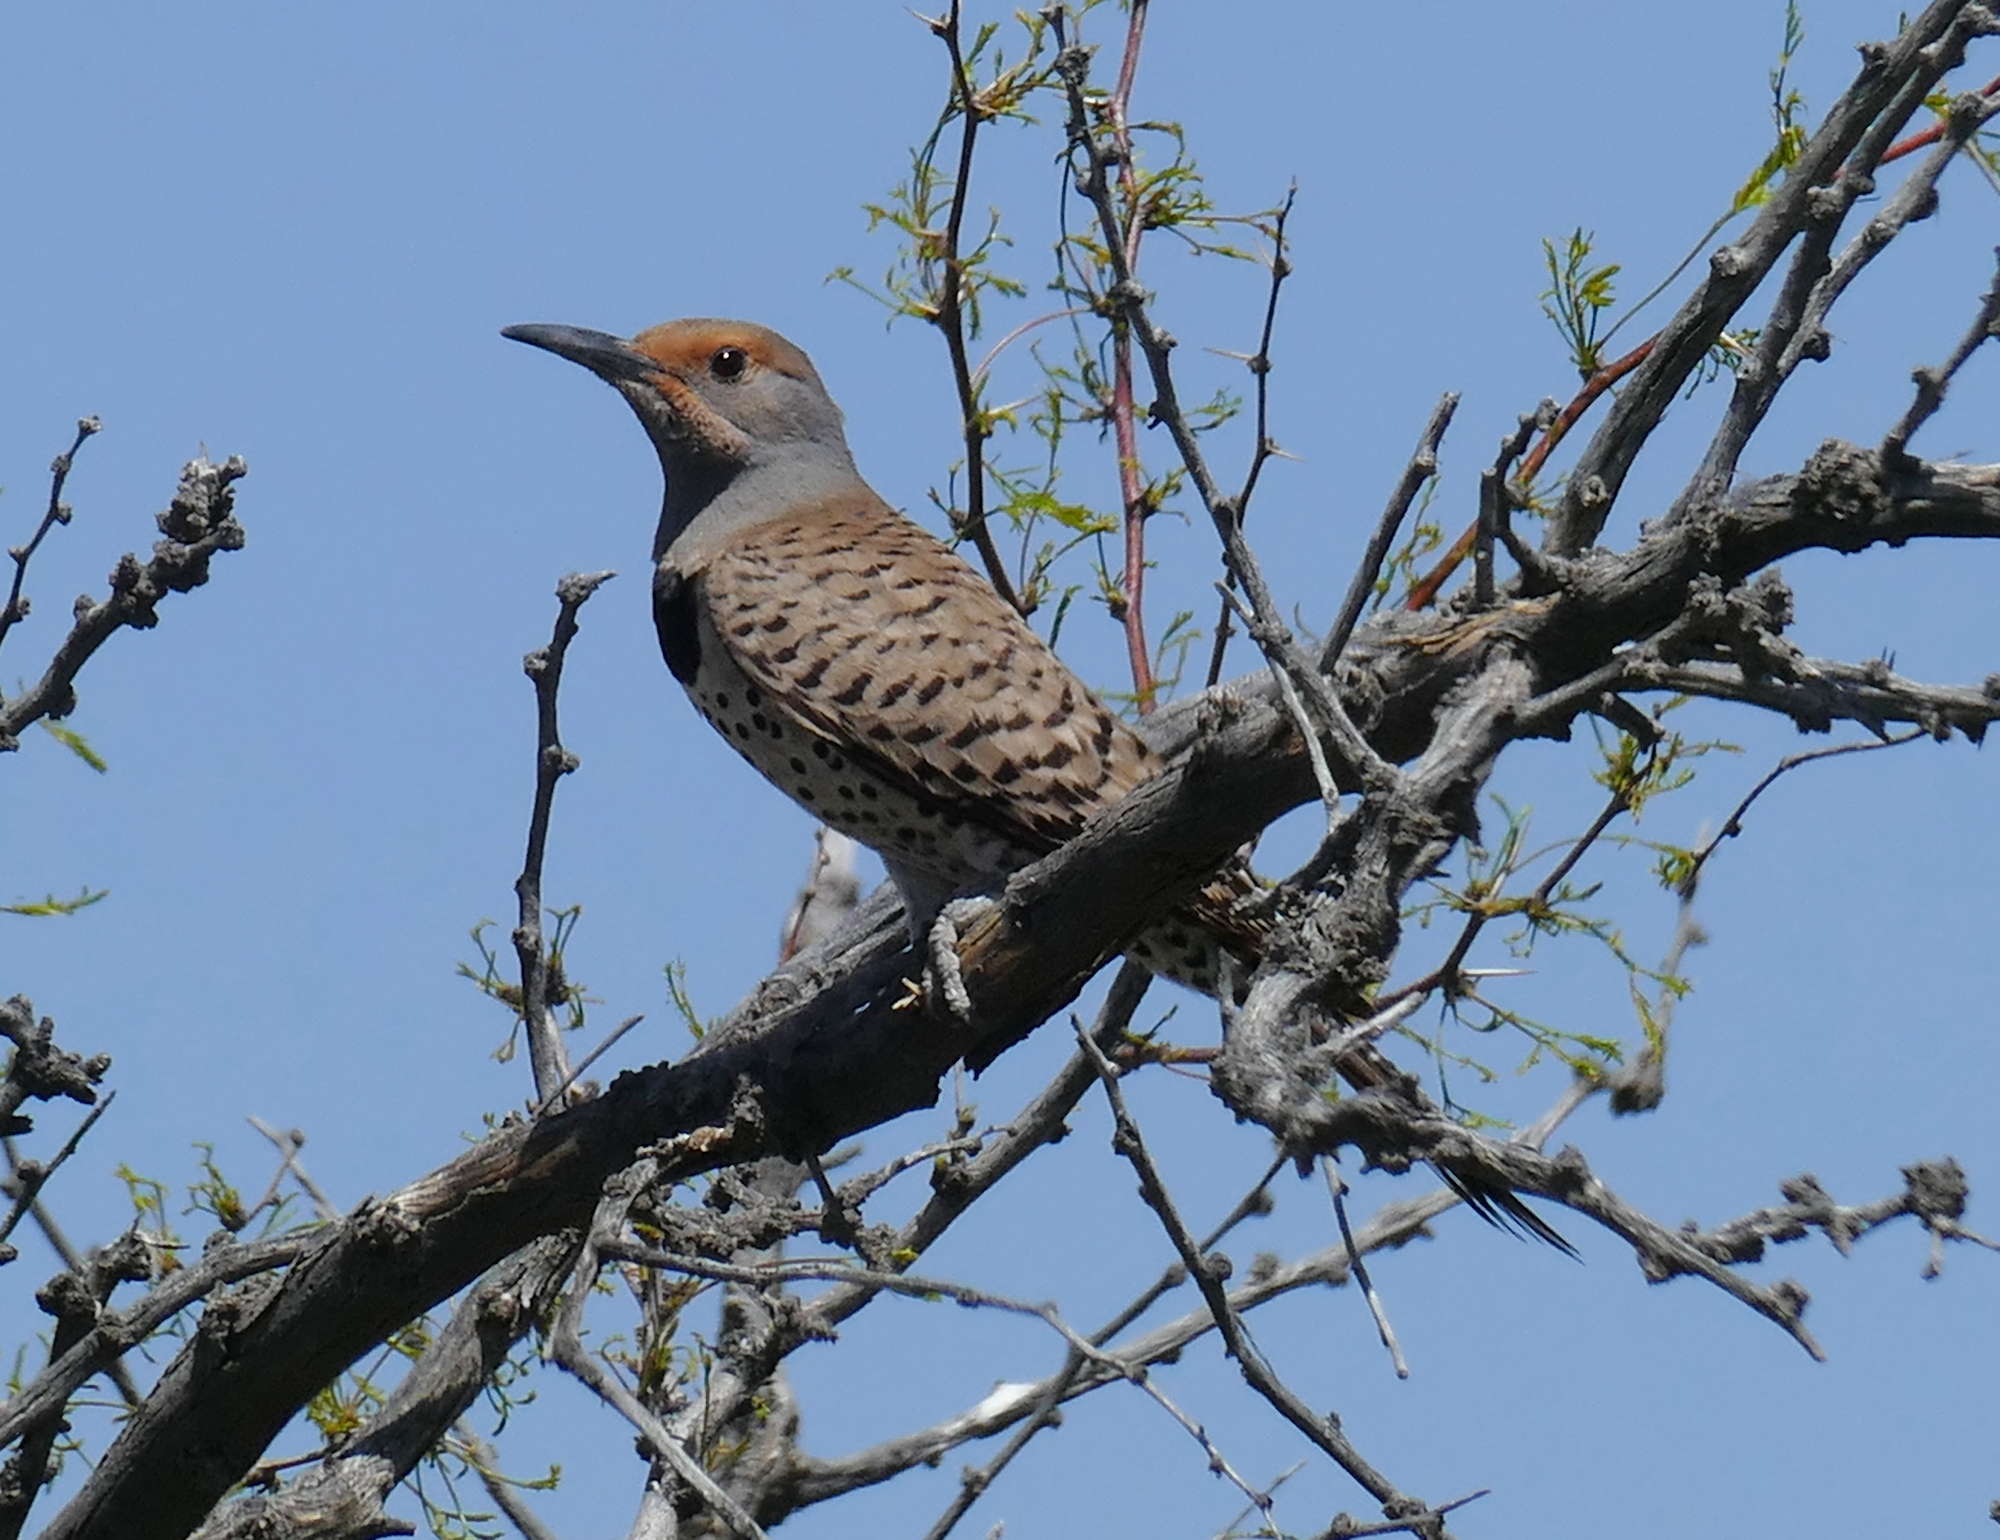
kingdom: Animalia
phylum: Chordata
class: Aves
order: Piciformes
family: Picidae
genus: Colaptes
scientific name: Colaptes auratus
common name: Northern flicker
